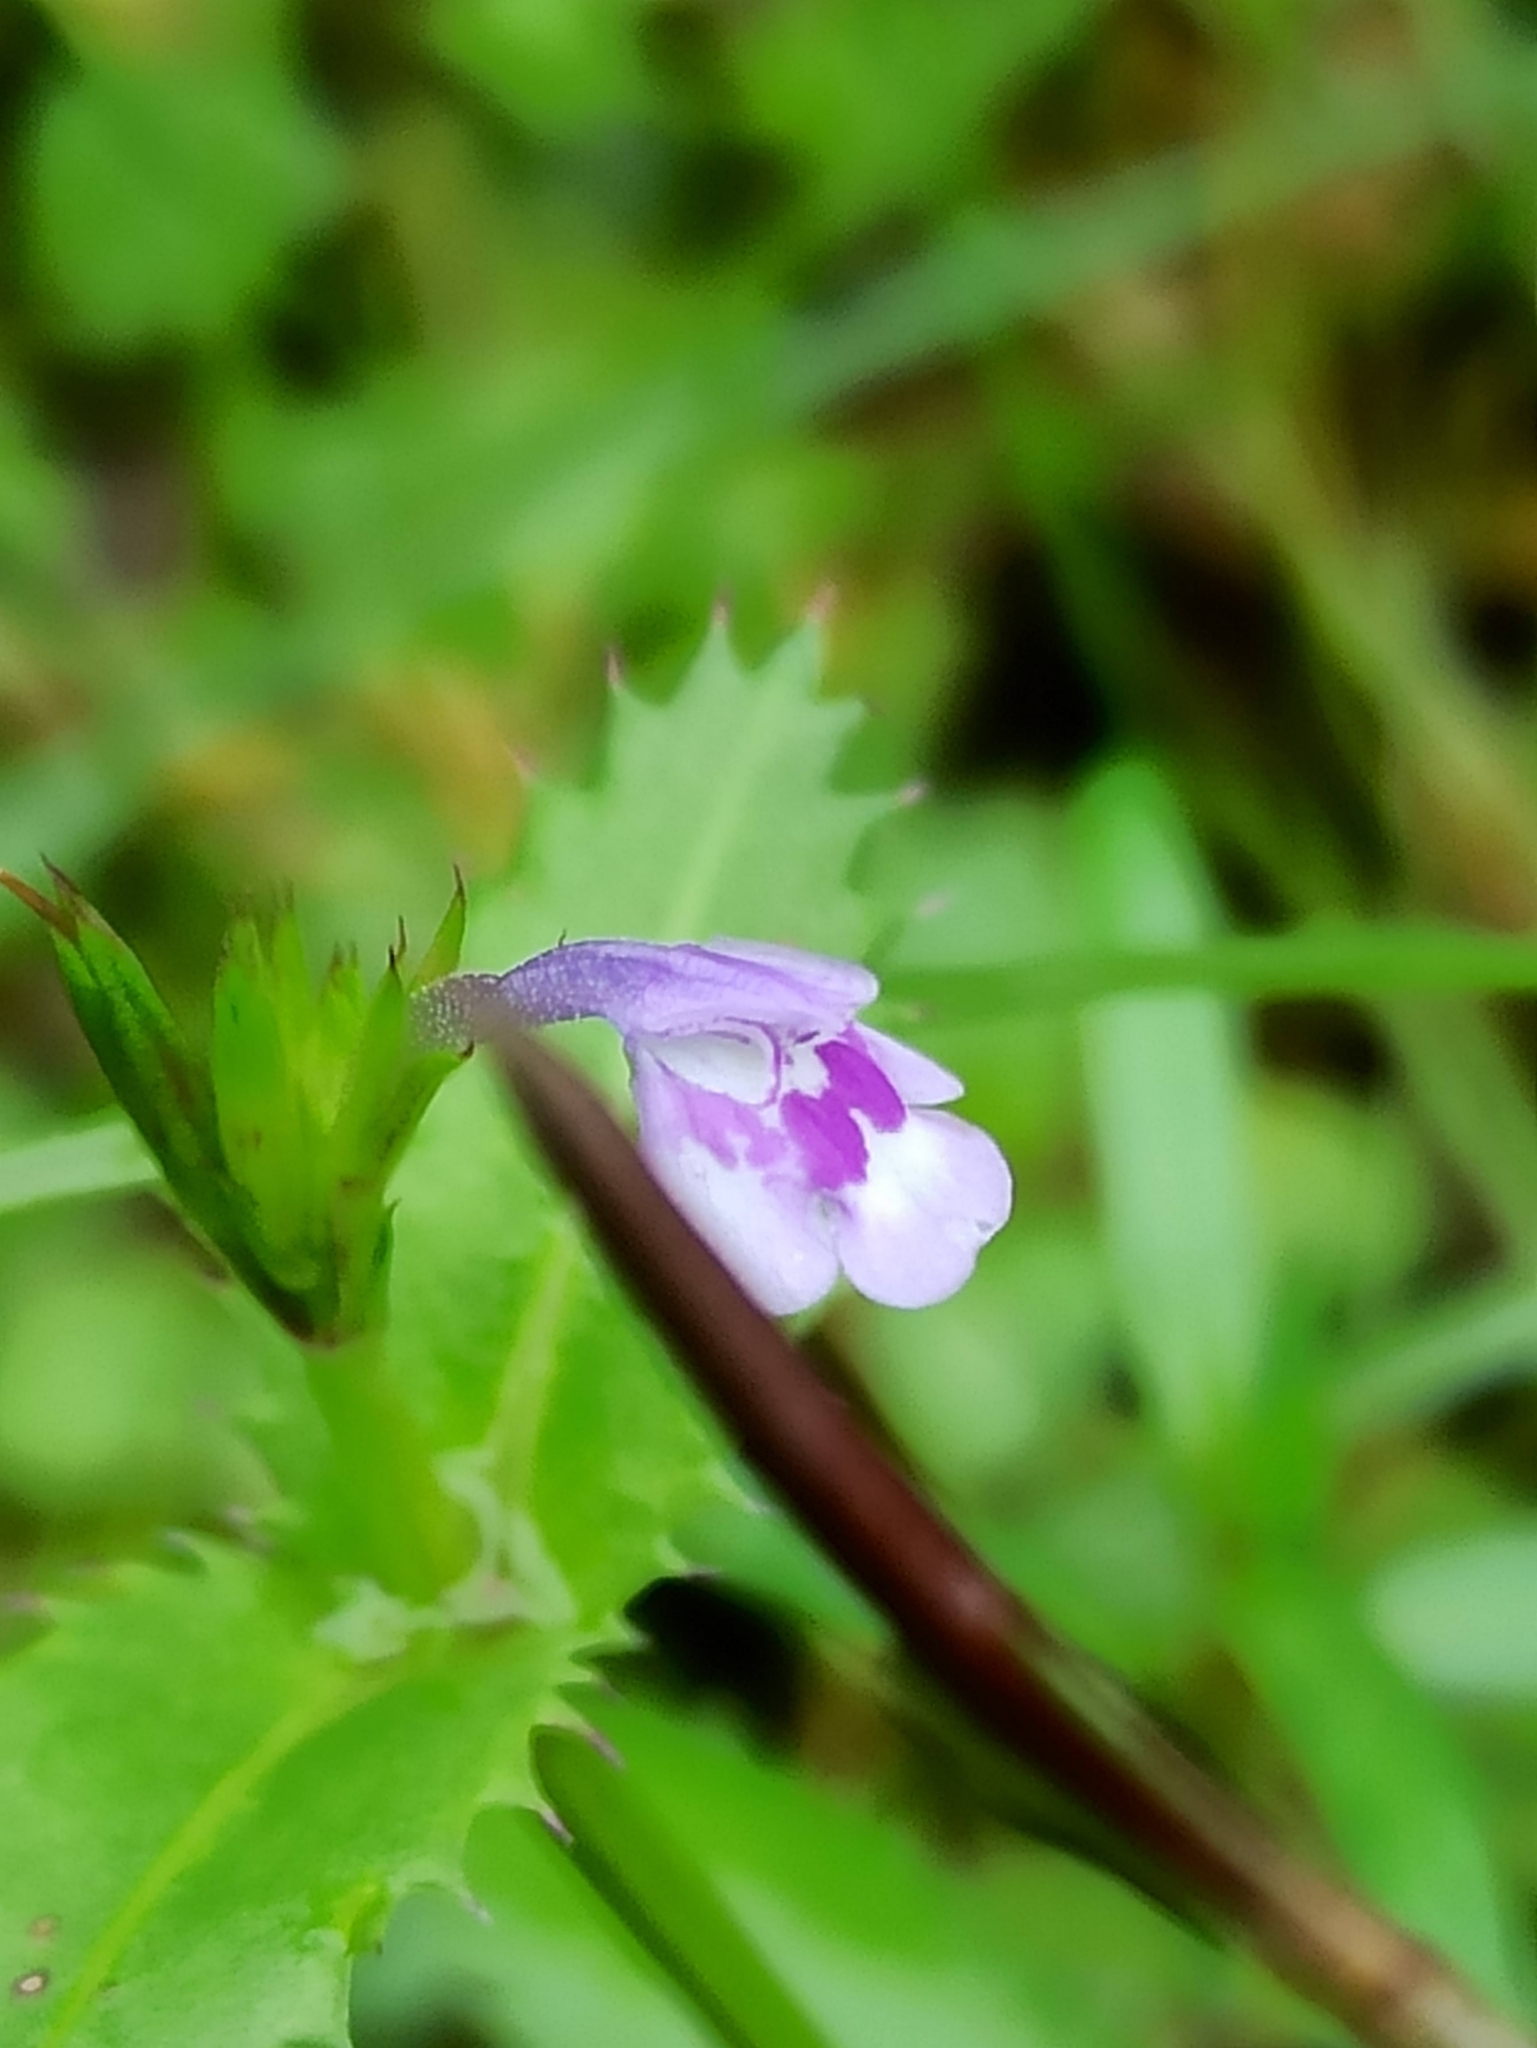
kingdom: Plantae
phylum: Tracheophyta
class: Magnoliopsida
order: Lamiales
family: Linderniaceae
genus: Bonnaya
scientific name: Bonnaya ciliata
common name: Hairy slitwort
